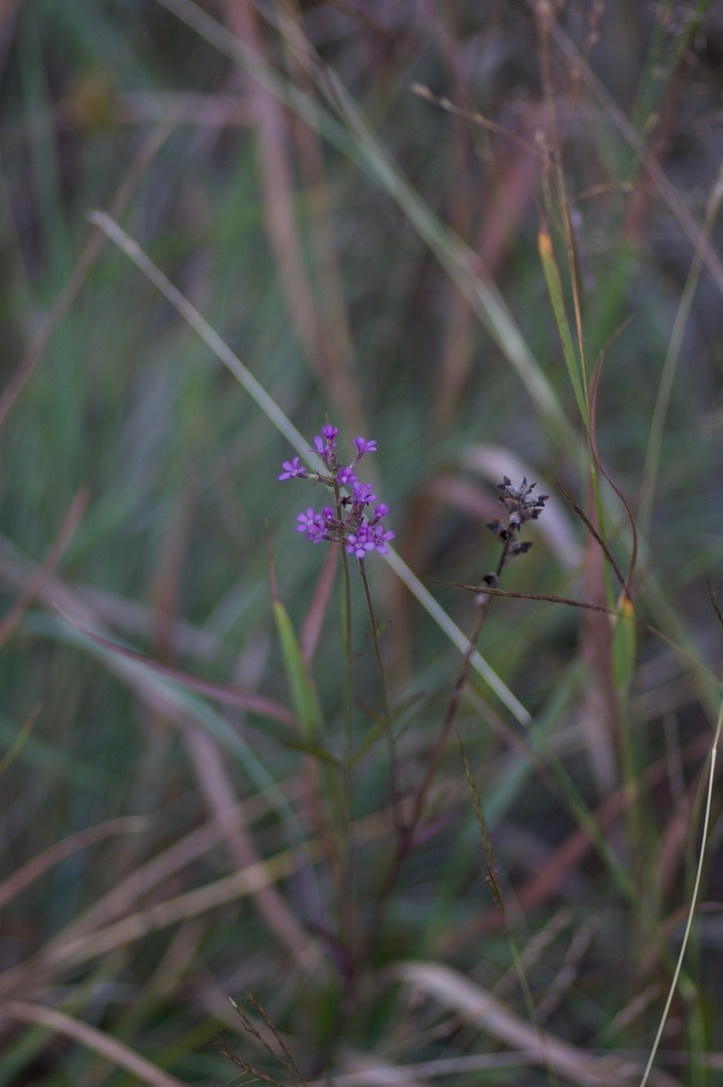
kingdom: Plantae
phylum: Tracheophyta
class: Magnoliopsida
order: Lamiales
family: Orobanchaceae
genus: Buchnera
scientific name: Buchnera floridana
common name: Florida bluehearts
